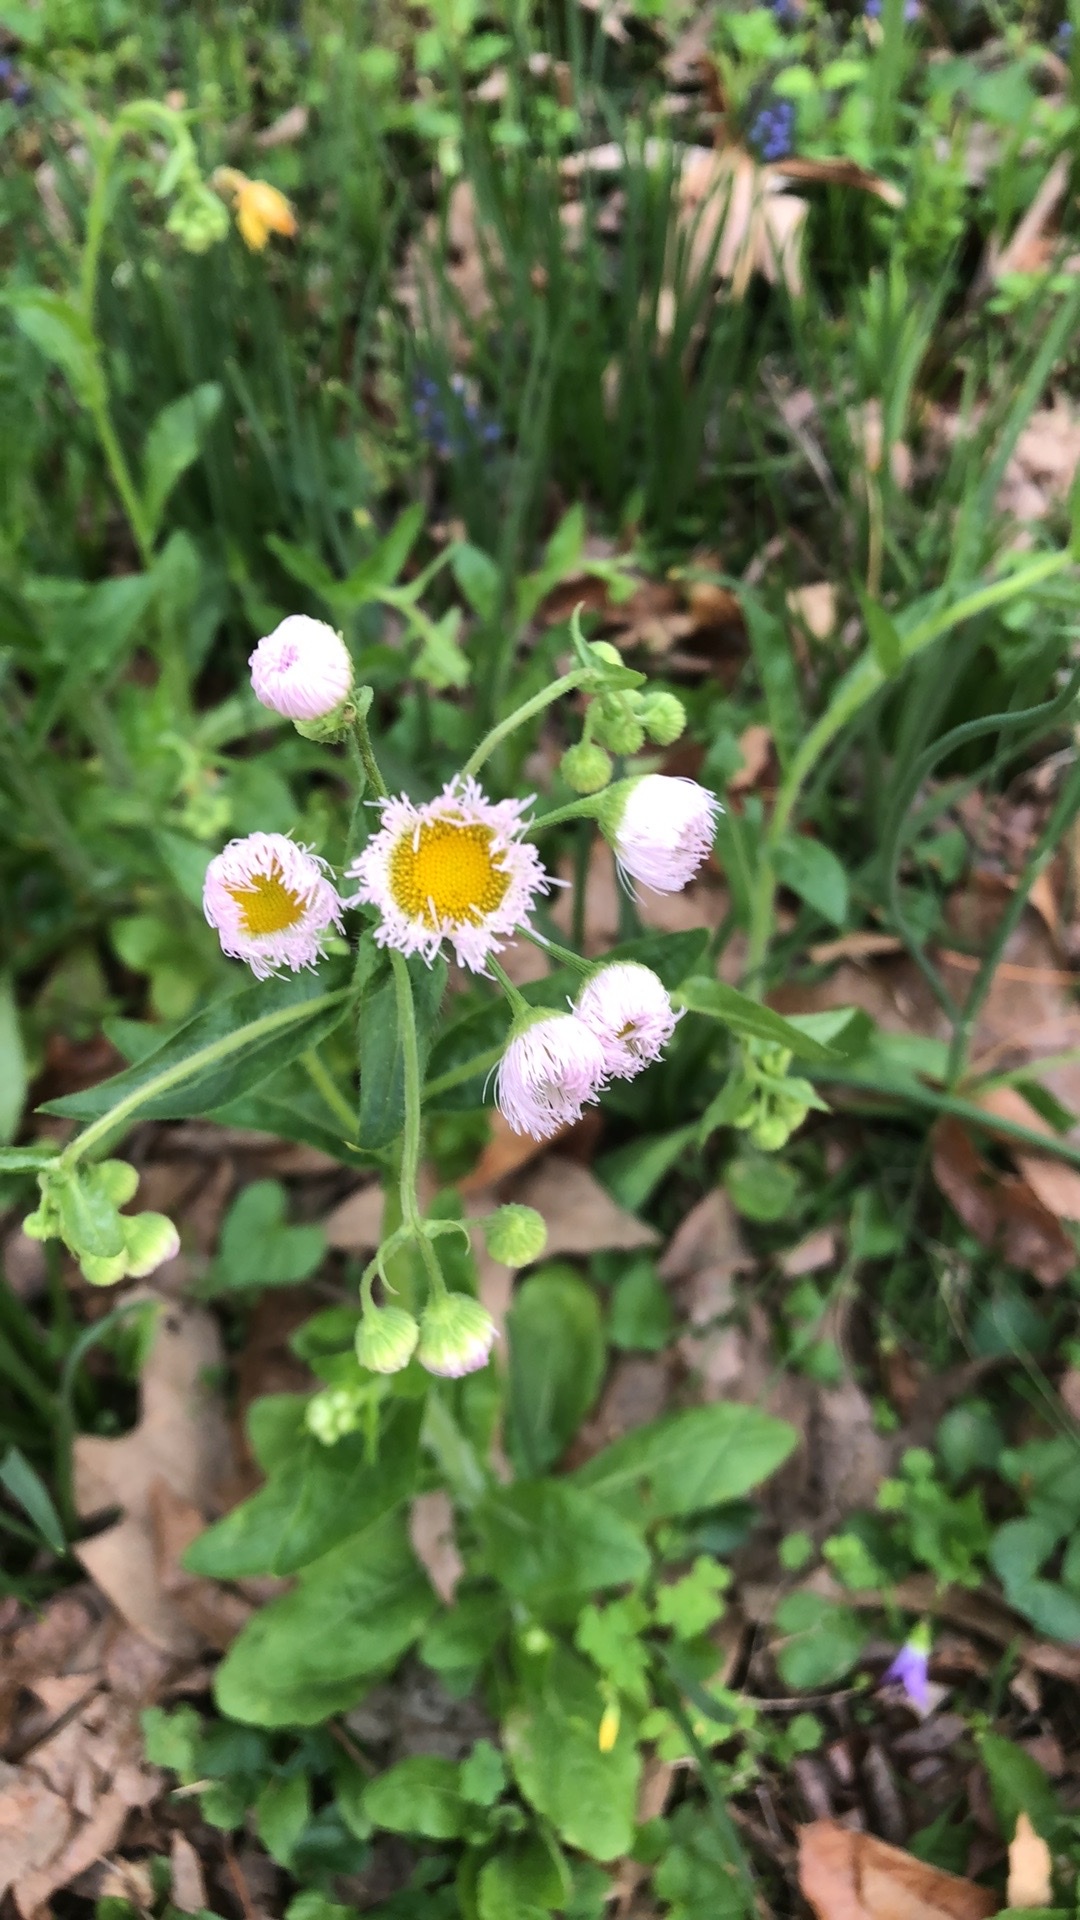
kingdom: Plantae
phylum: Tracheophyta
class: Magnoliopsida
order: Asterales
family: Asteraceae
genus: Erigeron
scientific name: Erigeron philadelphicus
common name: Robin's-plantain
